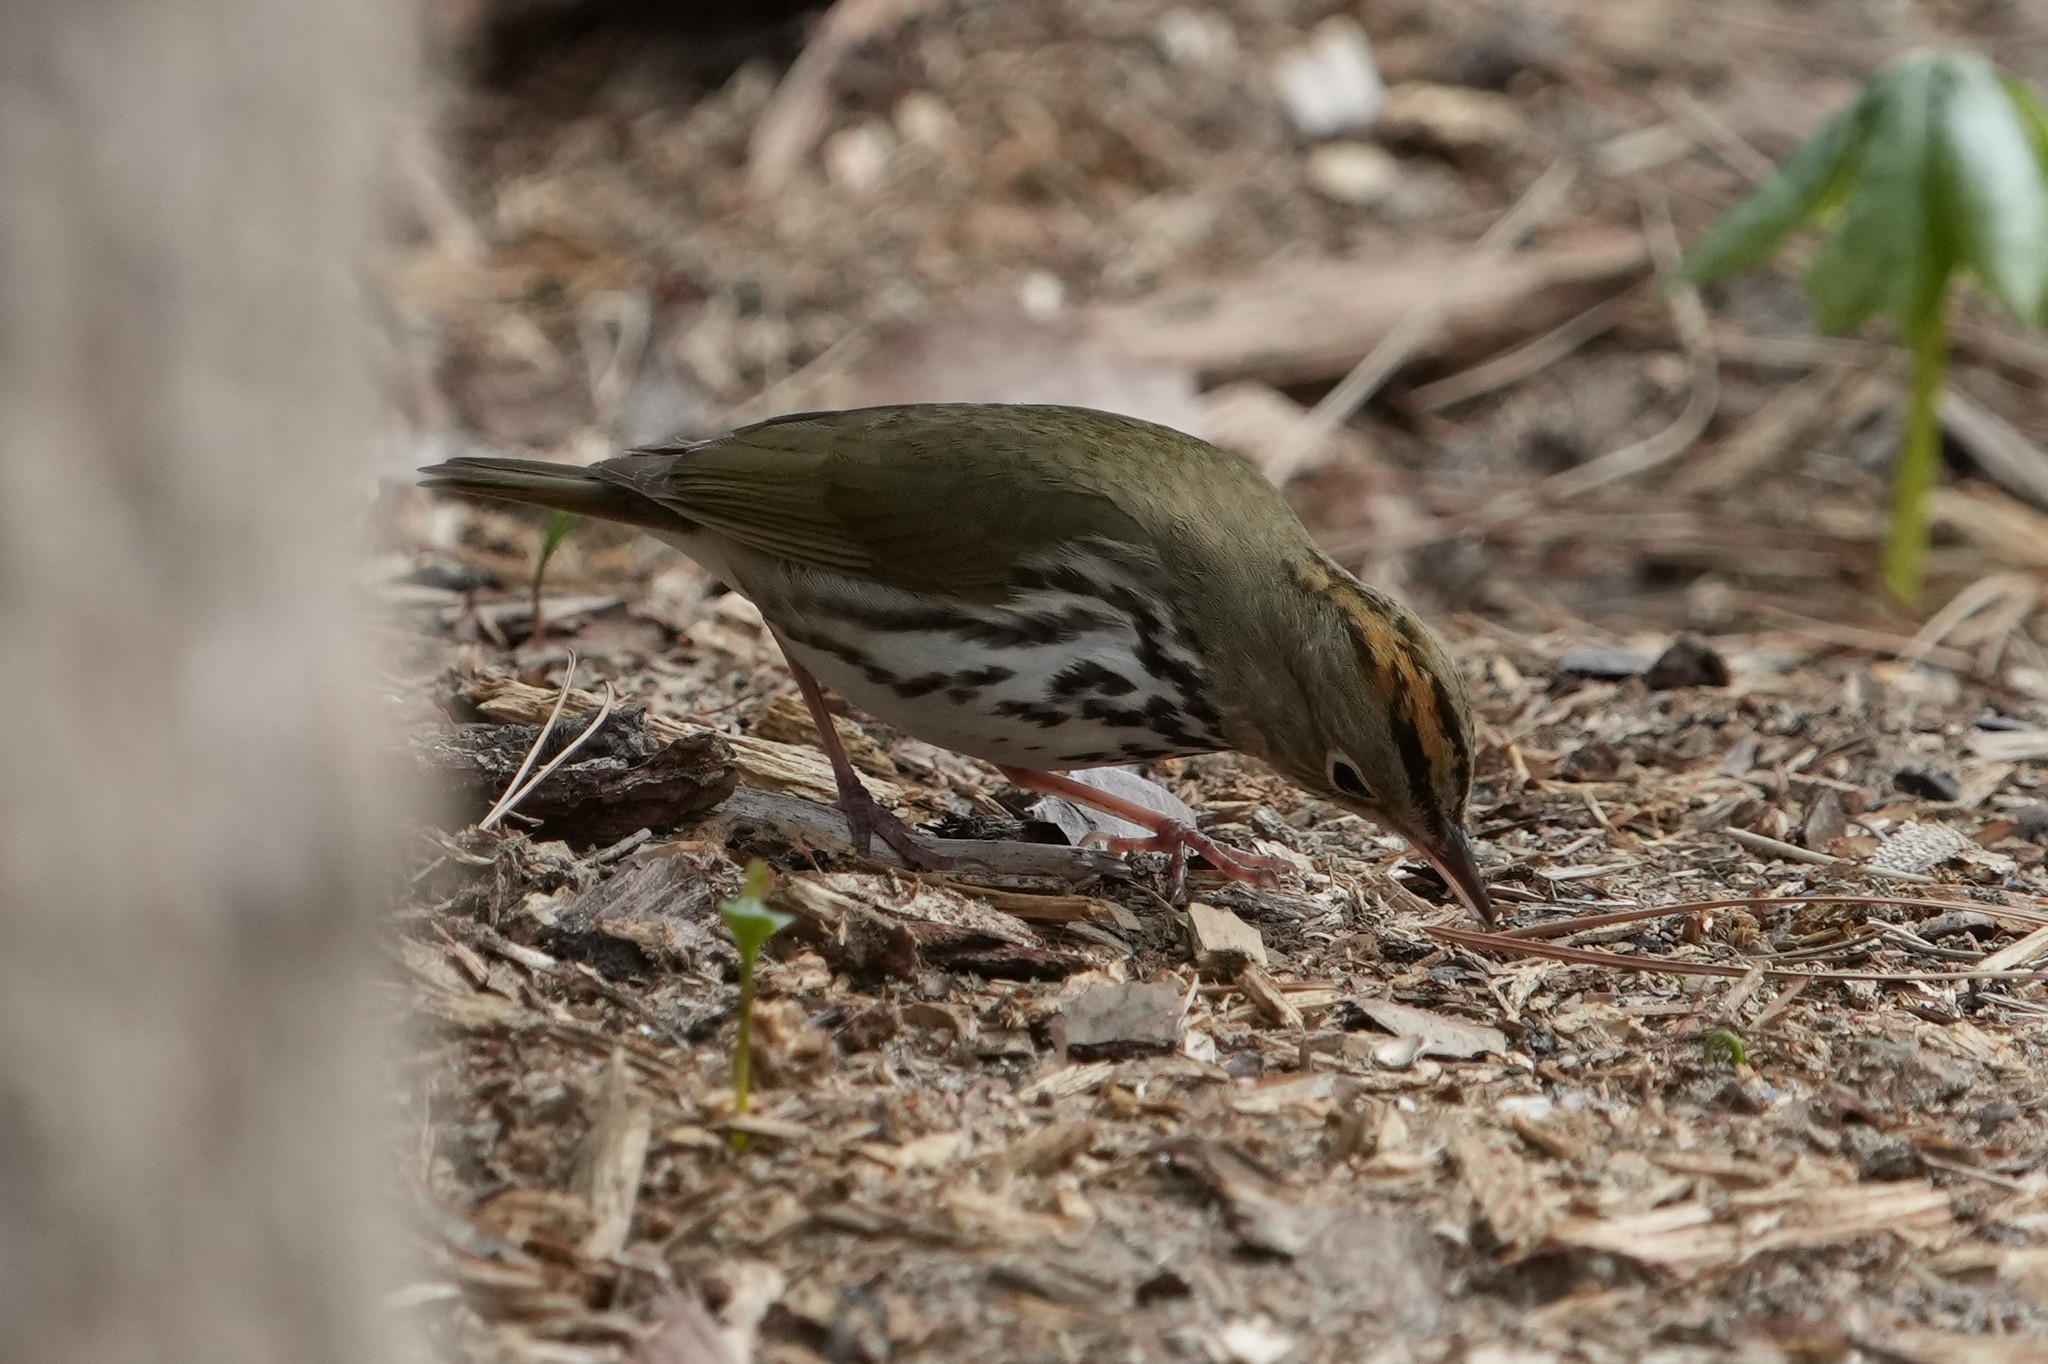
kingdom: Animalia
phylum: Chordata
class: Aves
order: Passeriformes
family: Parulidae
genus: Seiurus
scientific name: Seiurus aurocapilla
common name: Ovenbird
